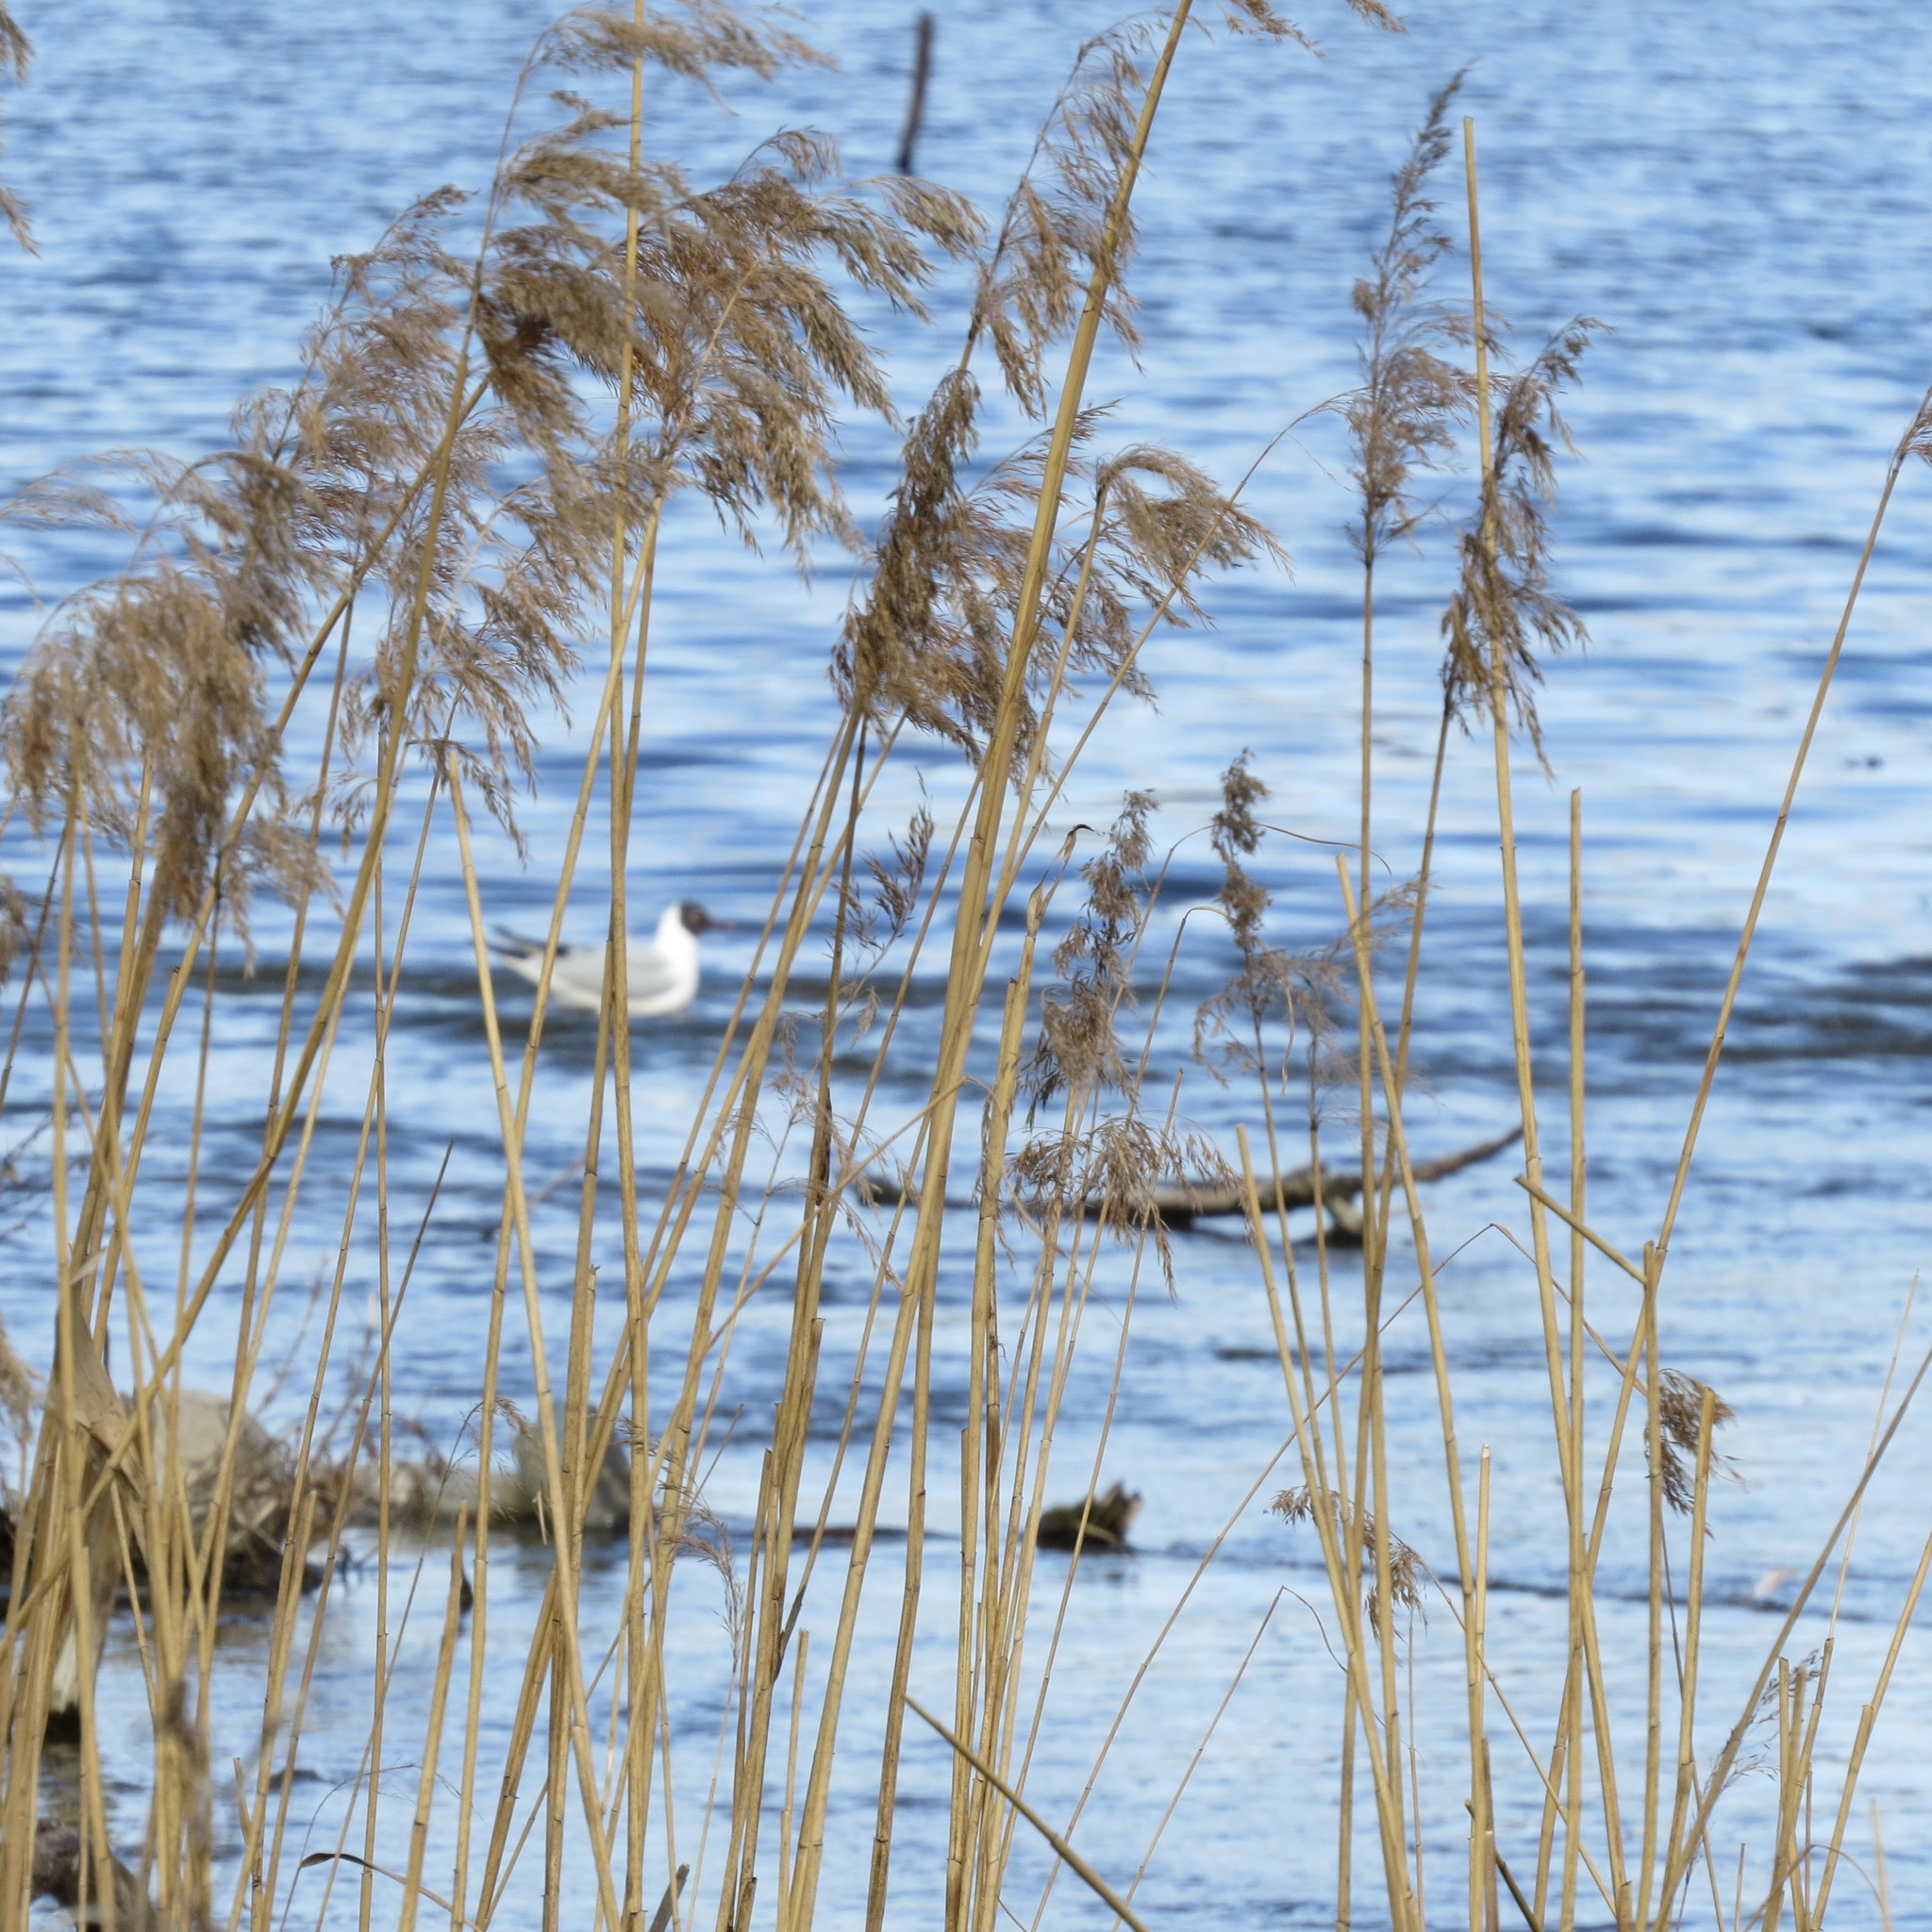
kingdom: Animalia
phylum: Chordata
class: Aves
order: Charadriiformes
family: Laridae
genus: Chroicocephalus
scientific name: Chroicocephalus ridibundus
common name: Black-headed gull
